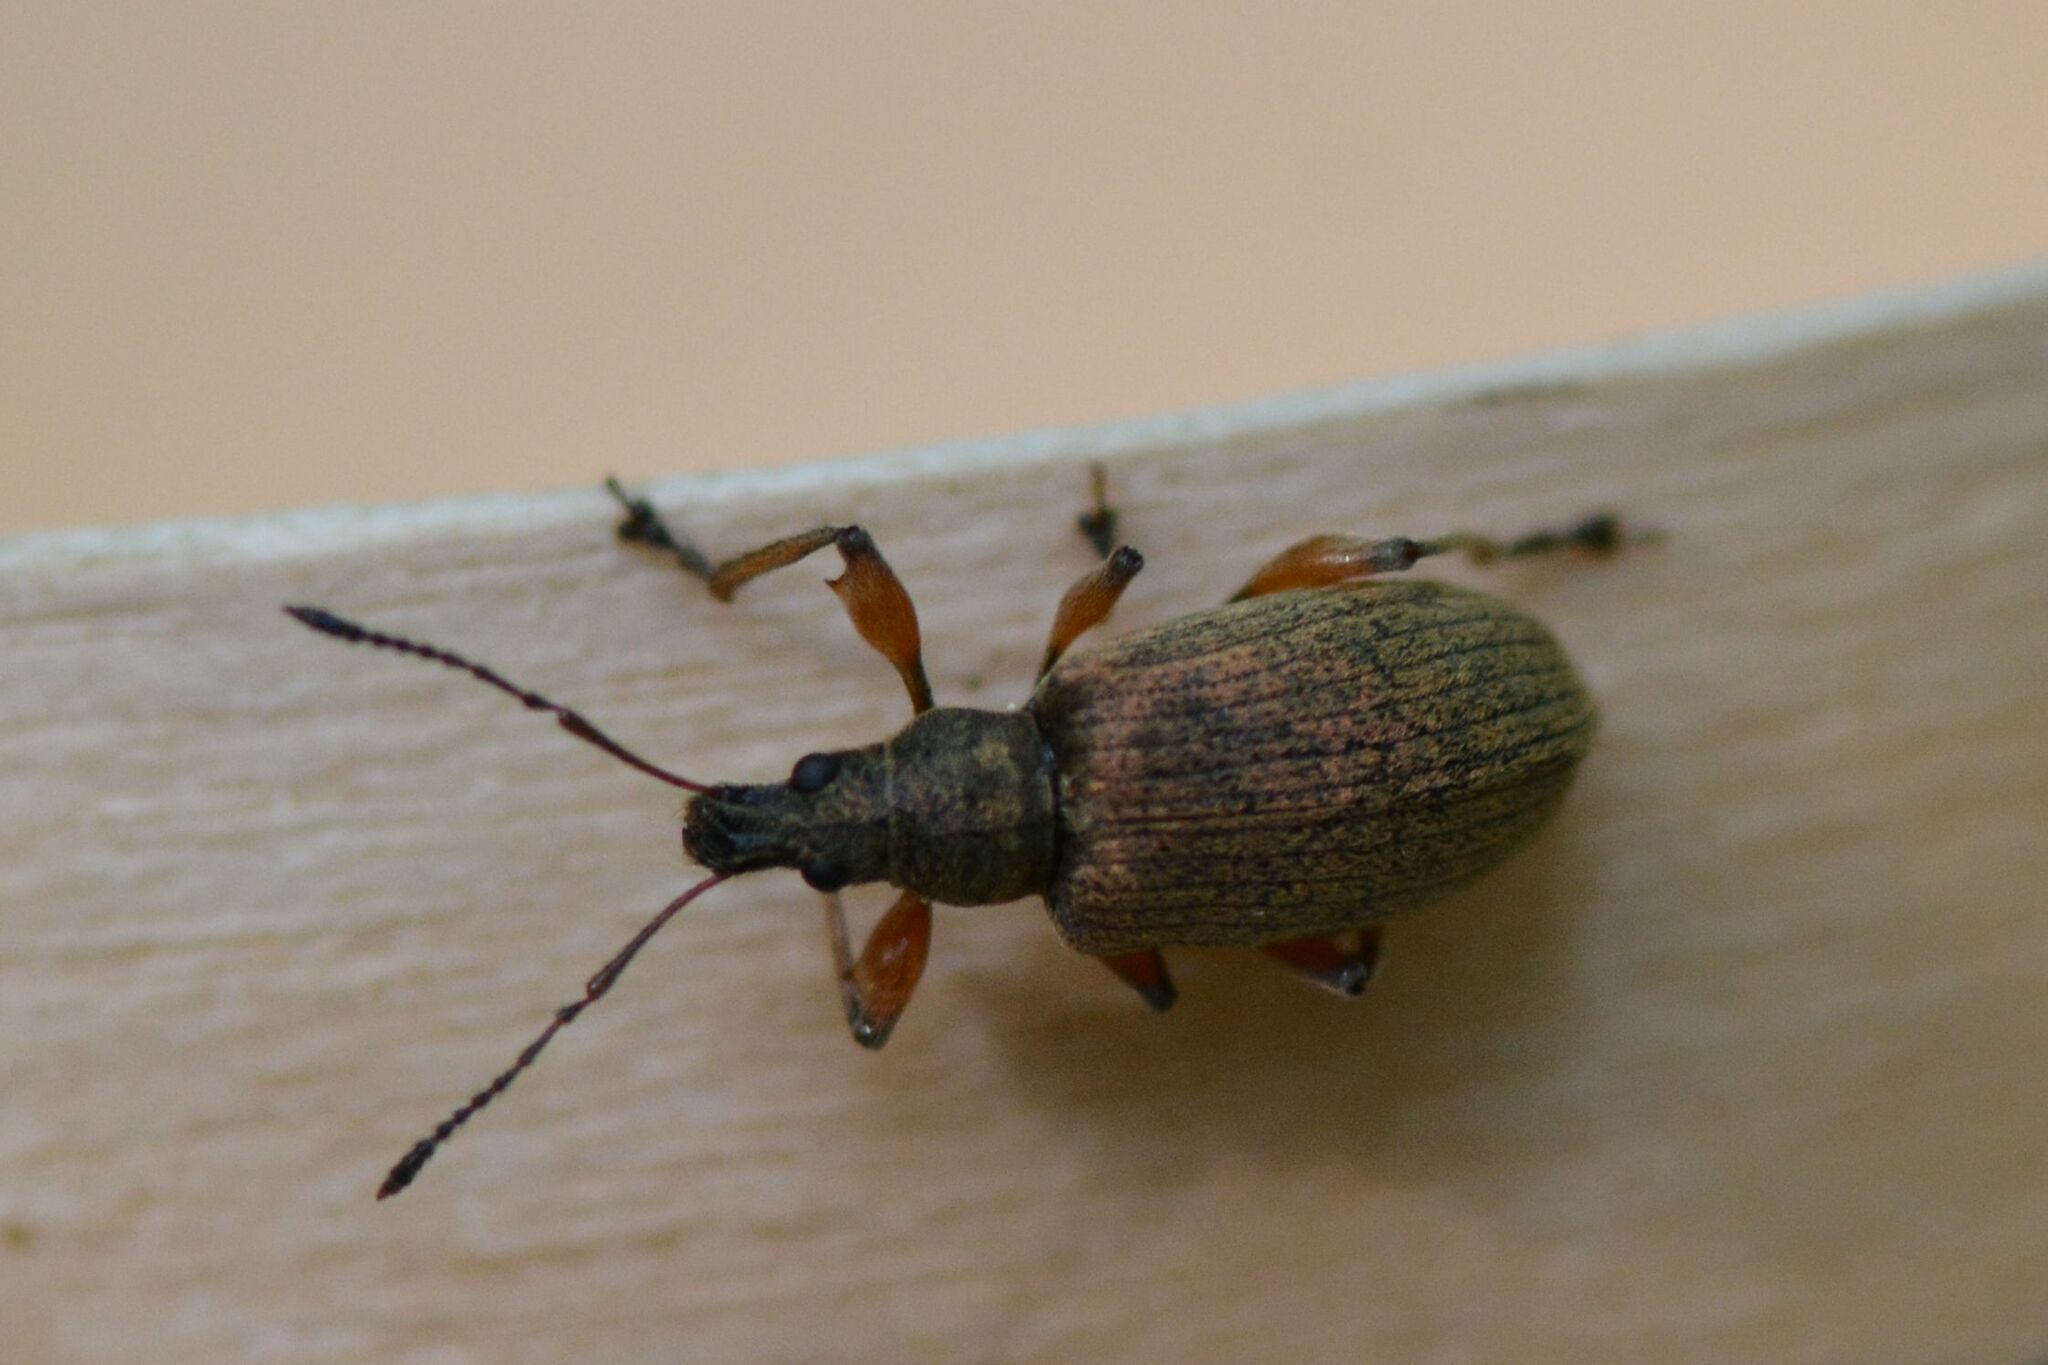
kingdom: Animalia
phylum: Arthropoda
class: Insecta
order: Coleoptera
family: Curculionidae
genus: Phyllobius
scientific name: Phyllobius glaucus
